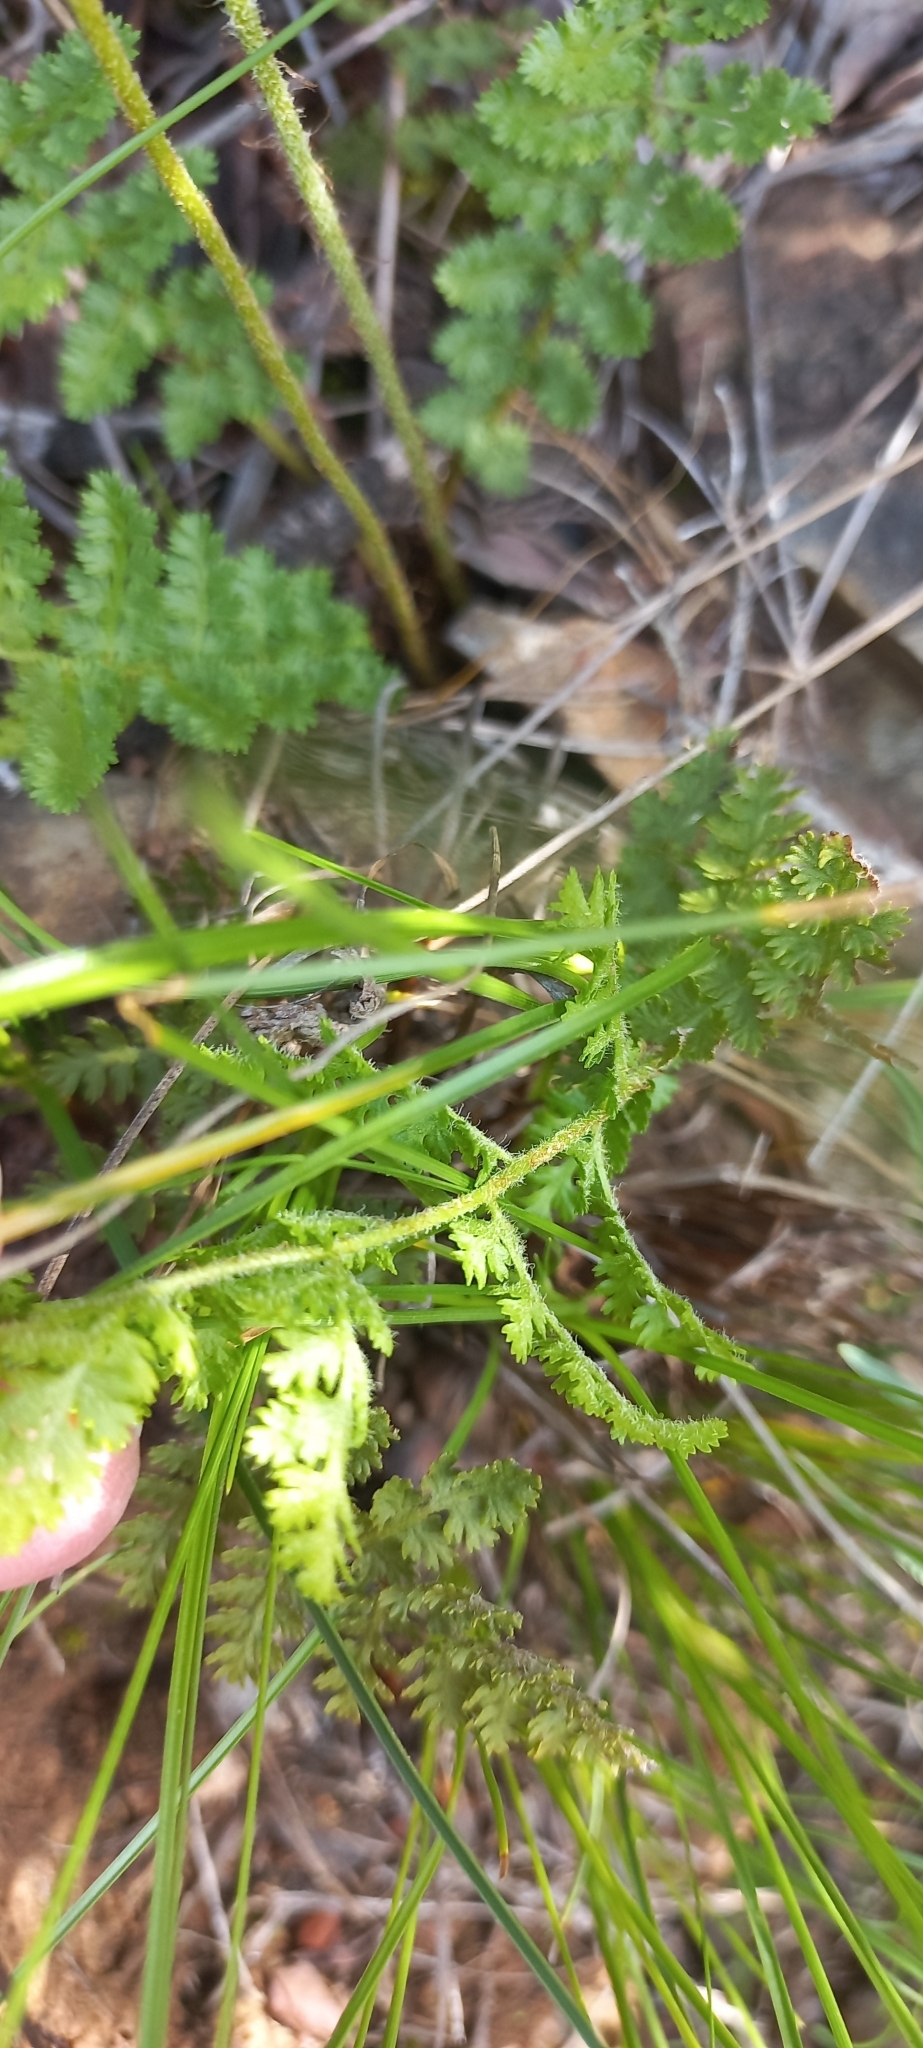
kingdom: Plantae
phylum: Tracheophyta
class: Polypodiopsida
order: Schizaeales
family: Anemiaceae
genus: Anemia
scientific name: Anemia caffrorum
